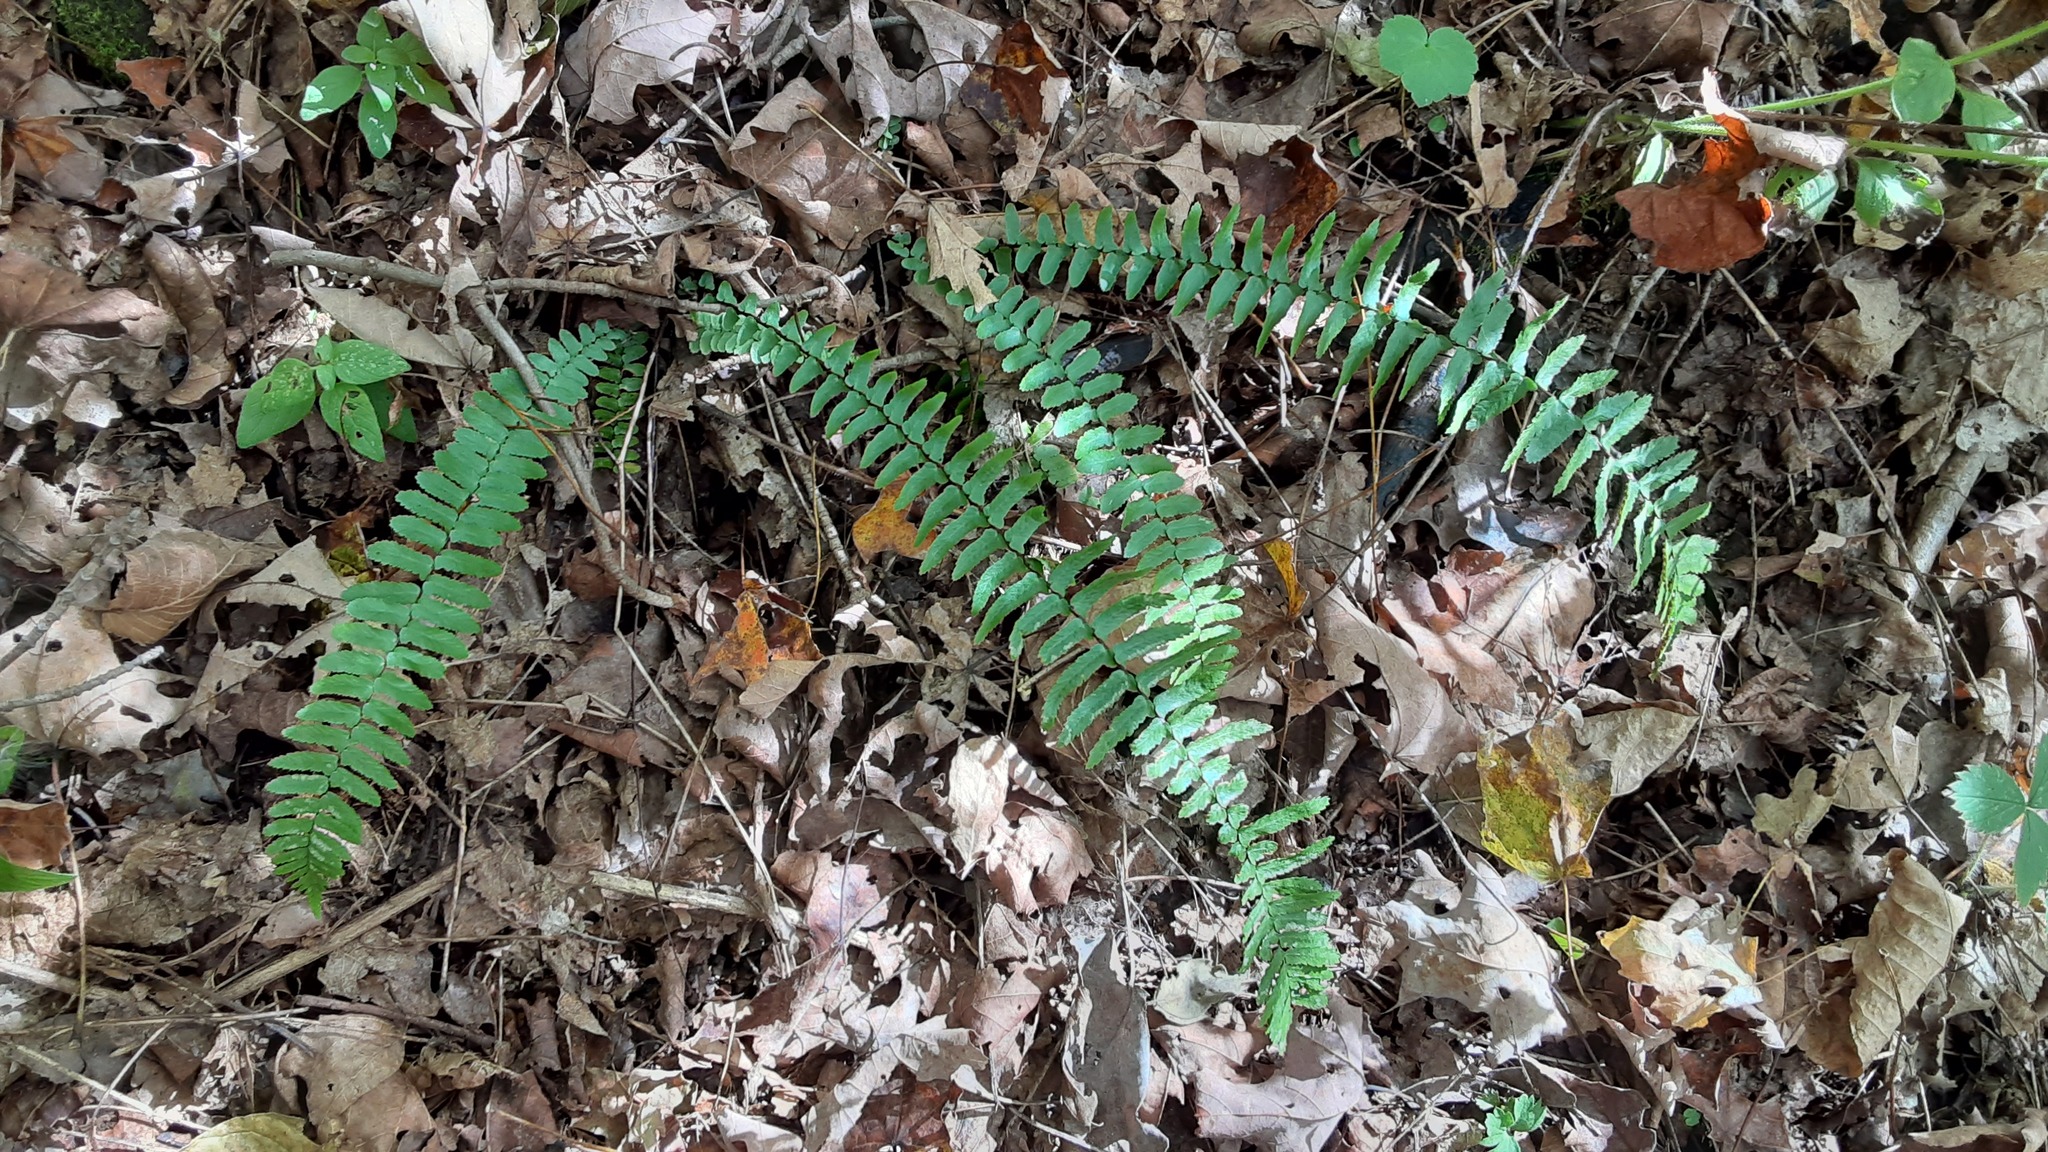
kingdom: Plantae
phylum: Tracheophyta
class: Polypodiopsida
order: Polypodiales
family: Aspleniaceae
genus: Asplenium
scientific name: Asplenium platyneuron
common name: Ebony spleenwort
